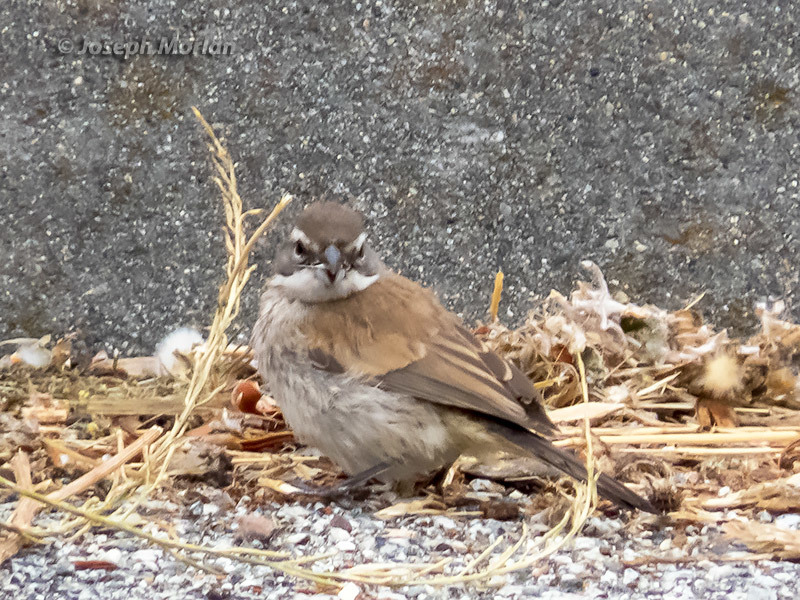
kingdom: Animalia
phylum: Chordata
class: Aves
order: Passeriformes
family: Passerellidae
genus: Amphispiza
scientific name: Amphispiza bilineata
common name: Black-throated sparrow
